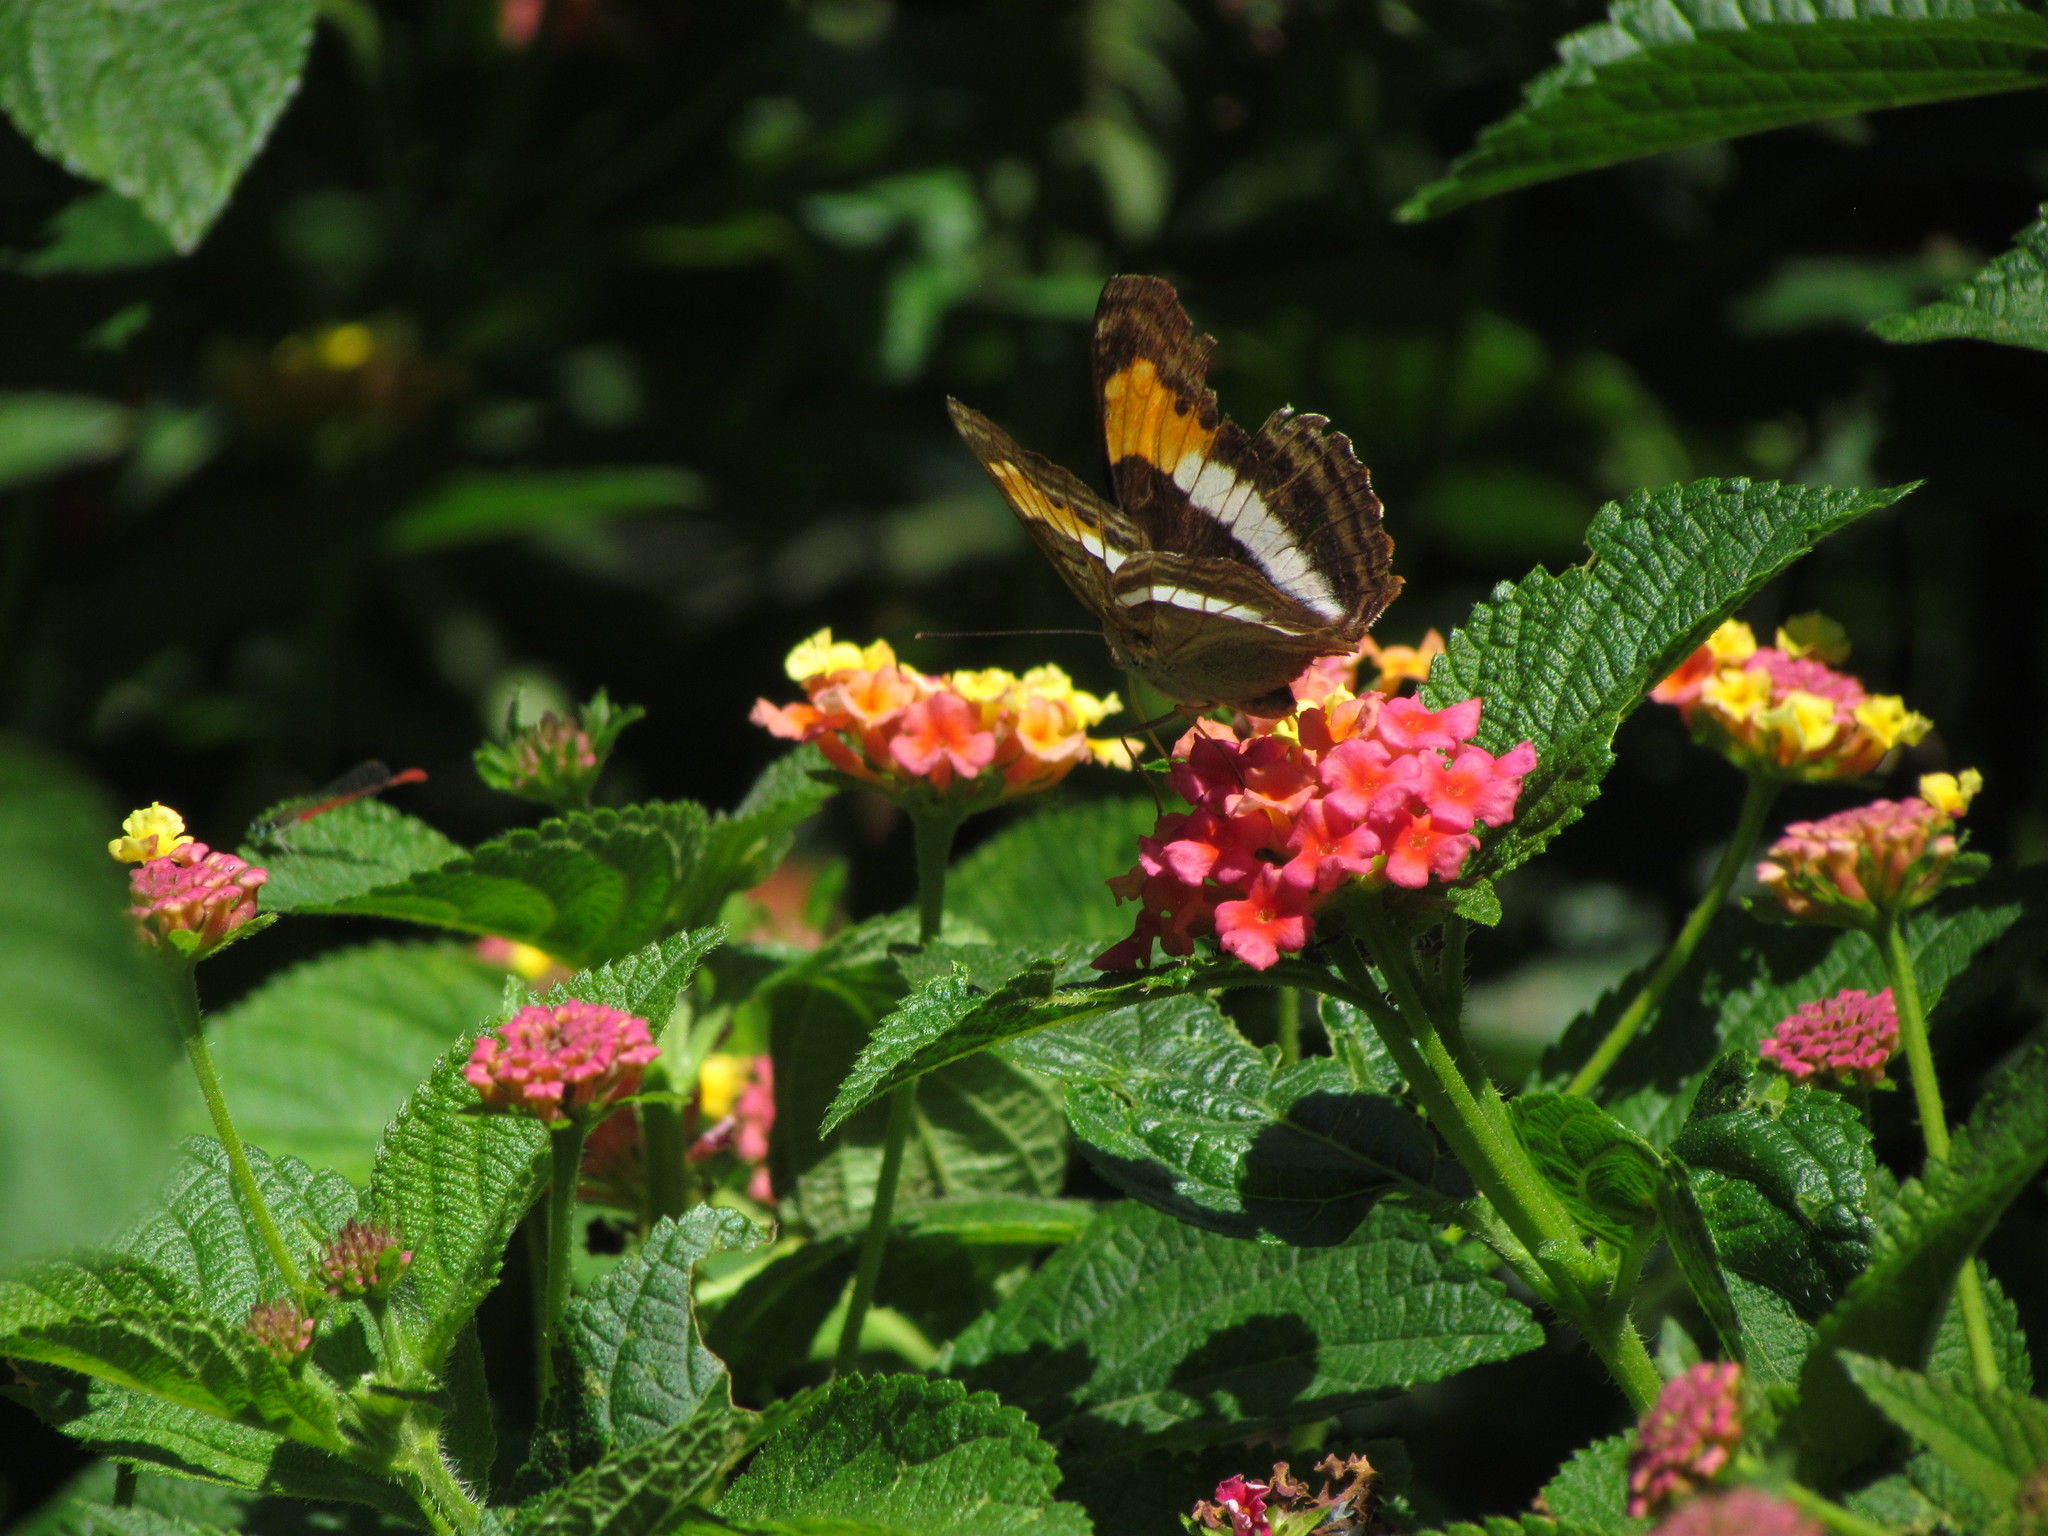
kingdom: Animalia
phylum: Arthropoda
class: Insecta
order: Lepidoptera
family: Nymphalidae
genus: Doxocopa
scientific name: Doxocopa laurentia
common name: Turquoise emperor
